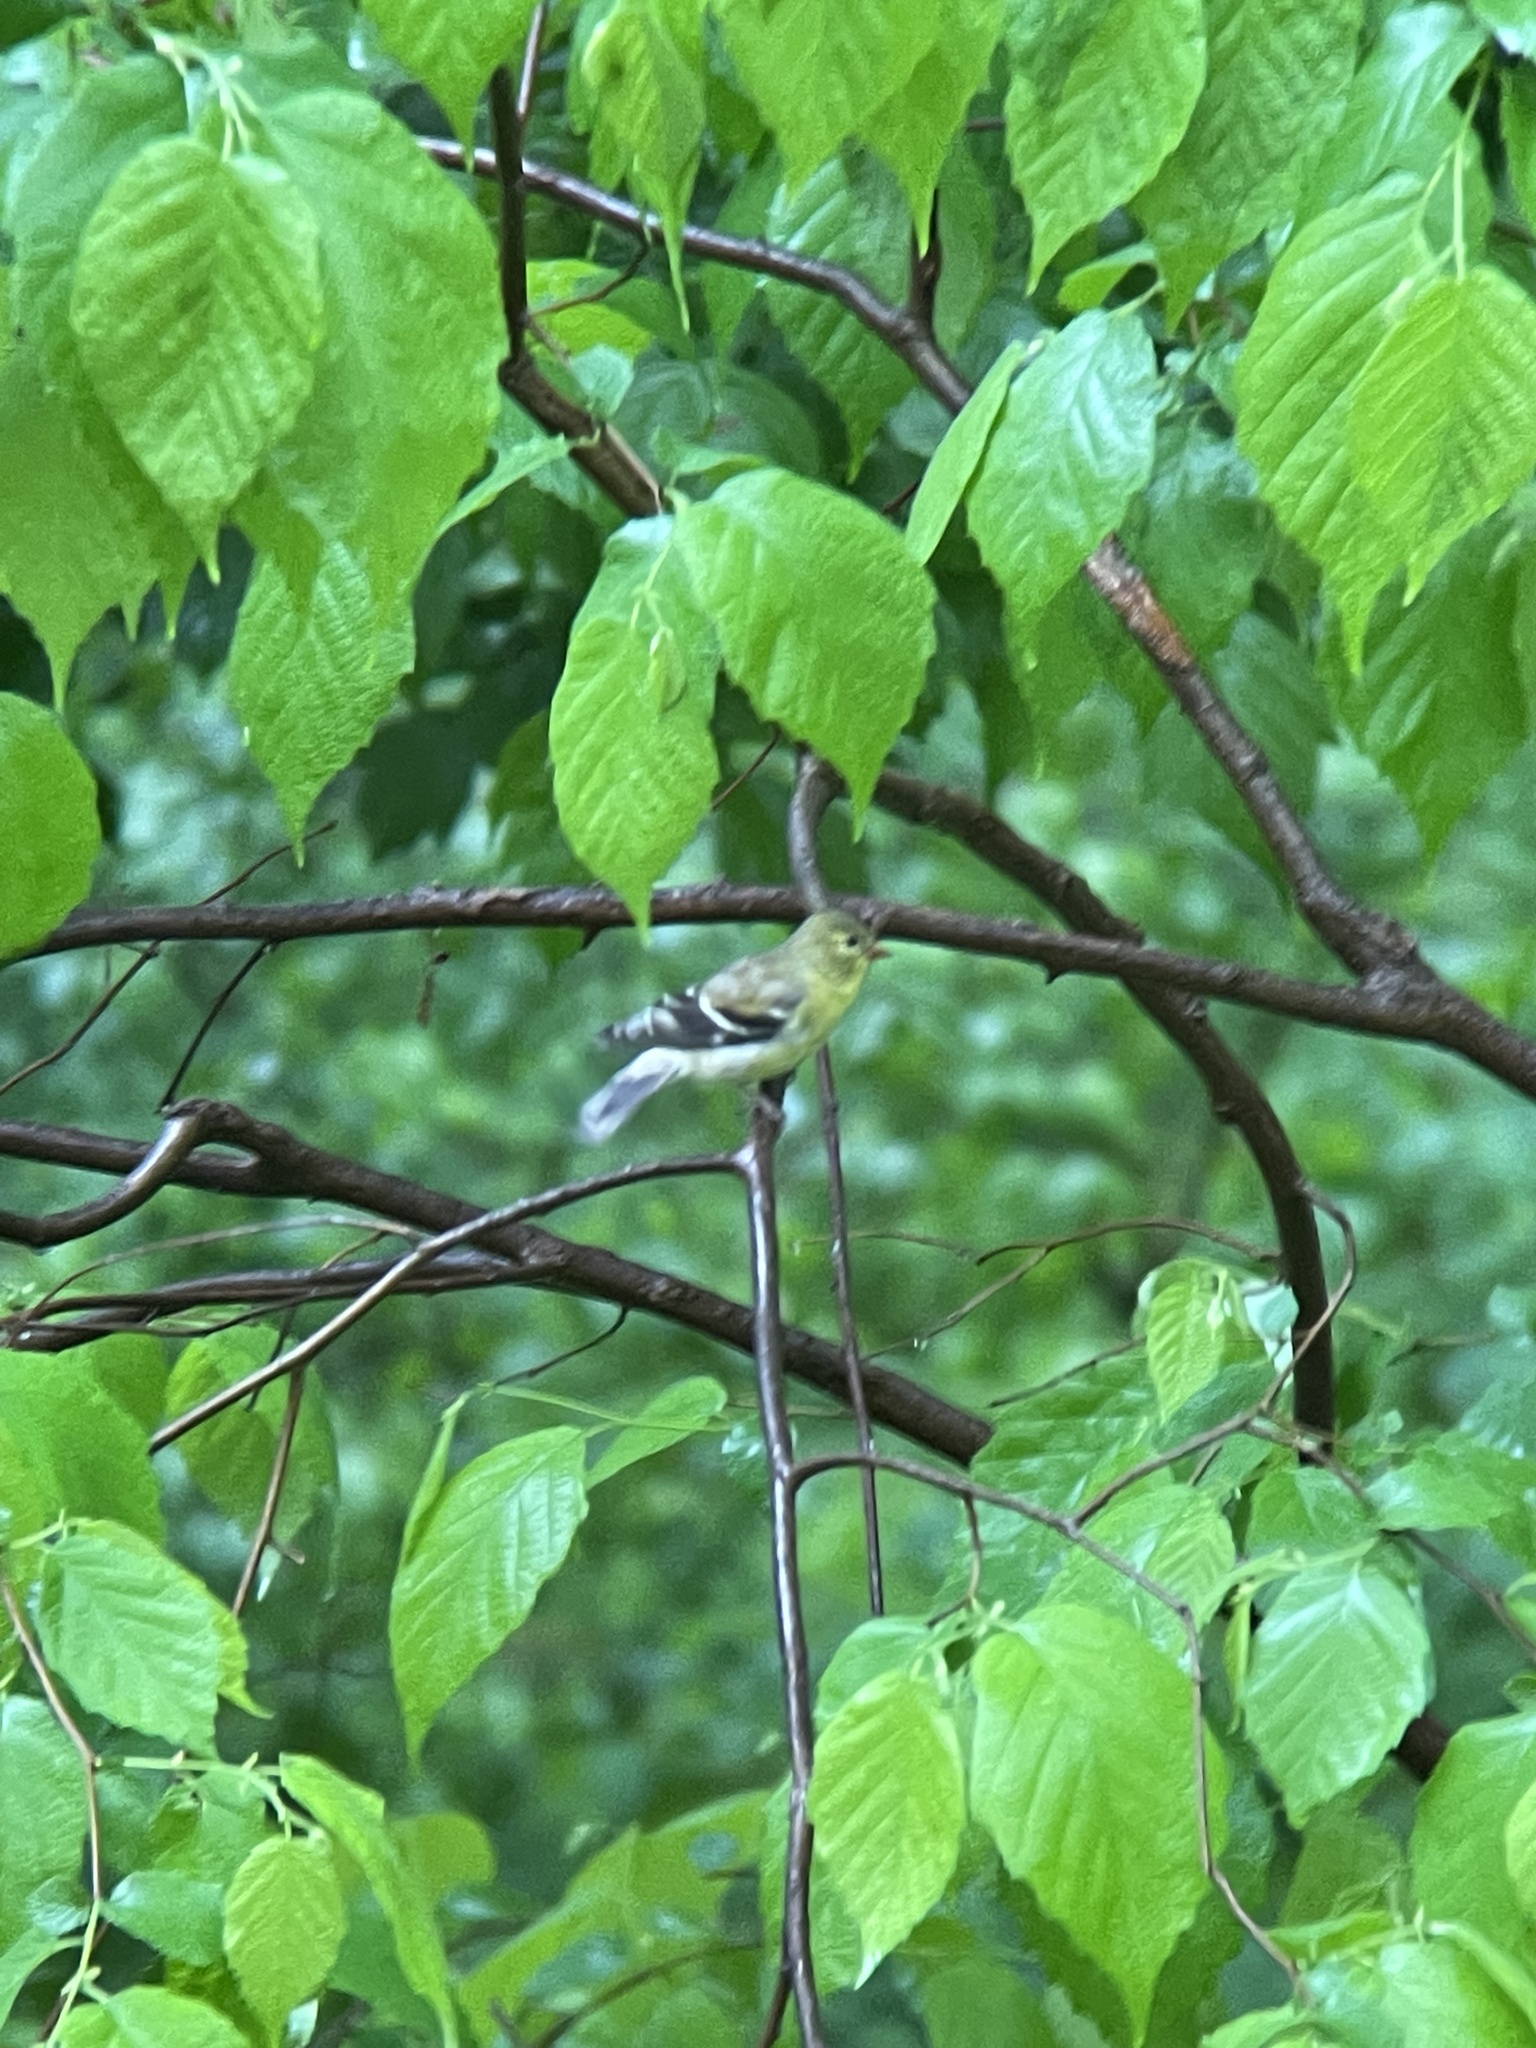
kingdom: Animalia
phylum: Chordata
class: Aves
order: Passeriformes
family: Fringillidae
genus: Spinus
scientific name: Spinus tristis
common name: American goldfinch
